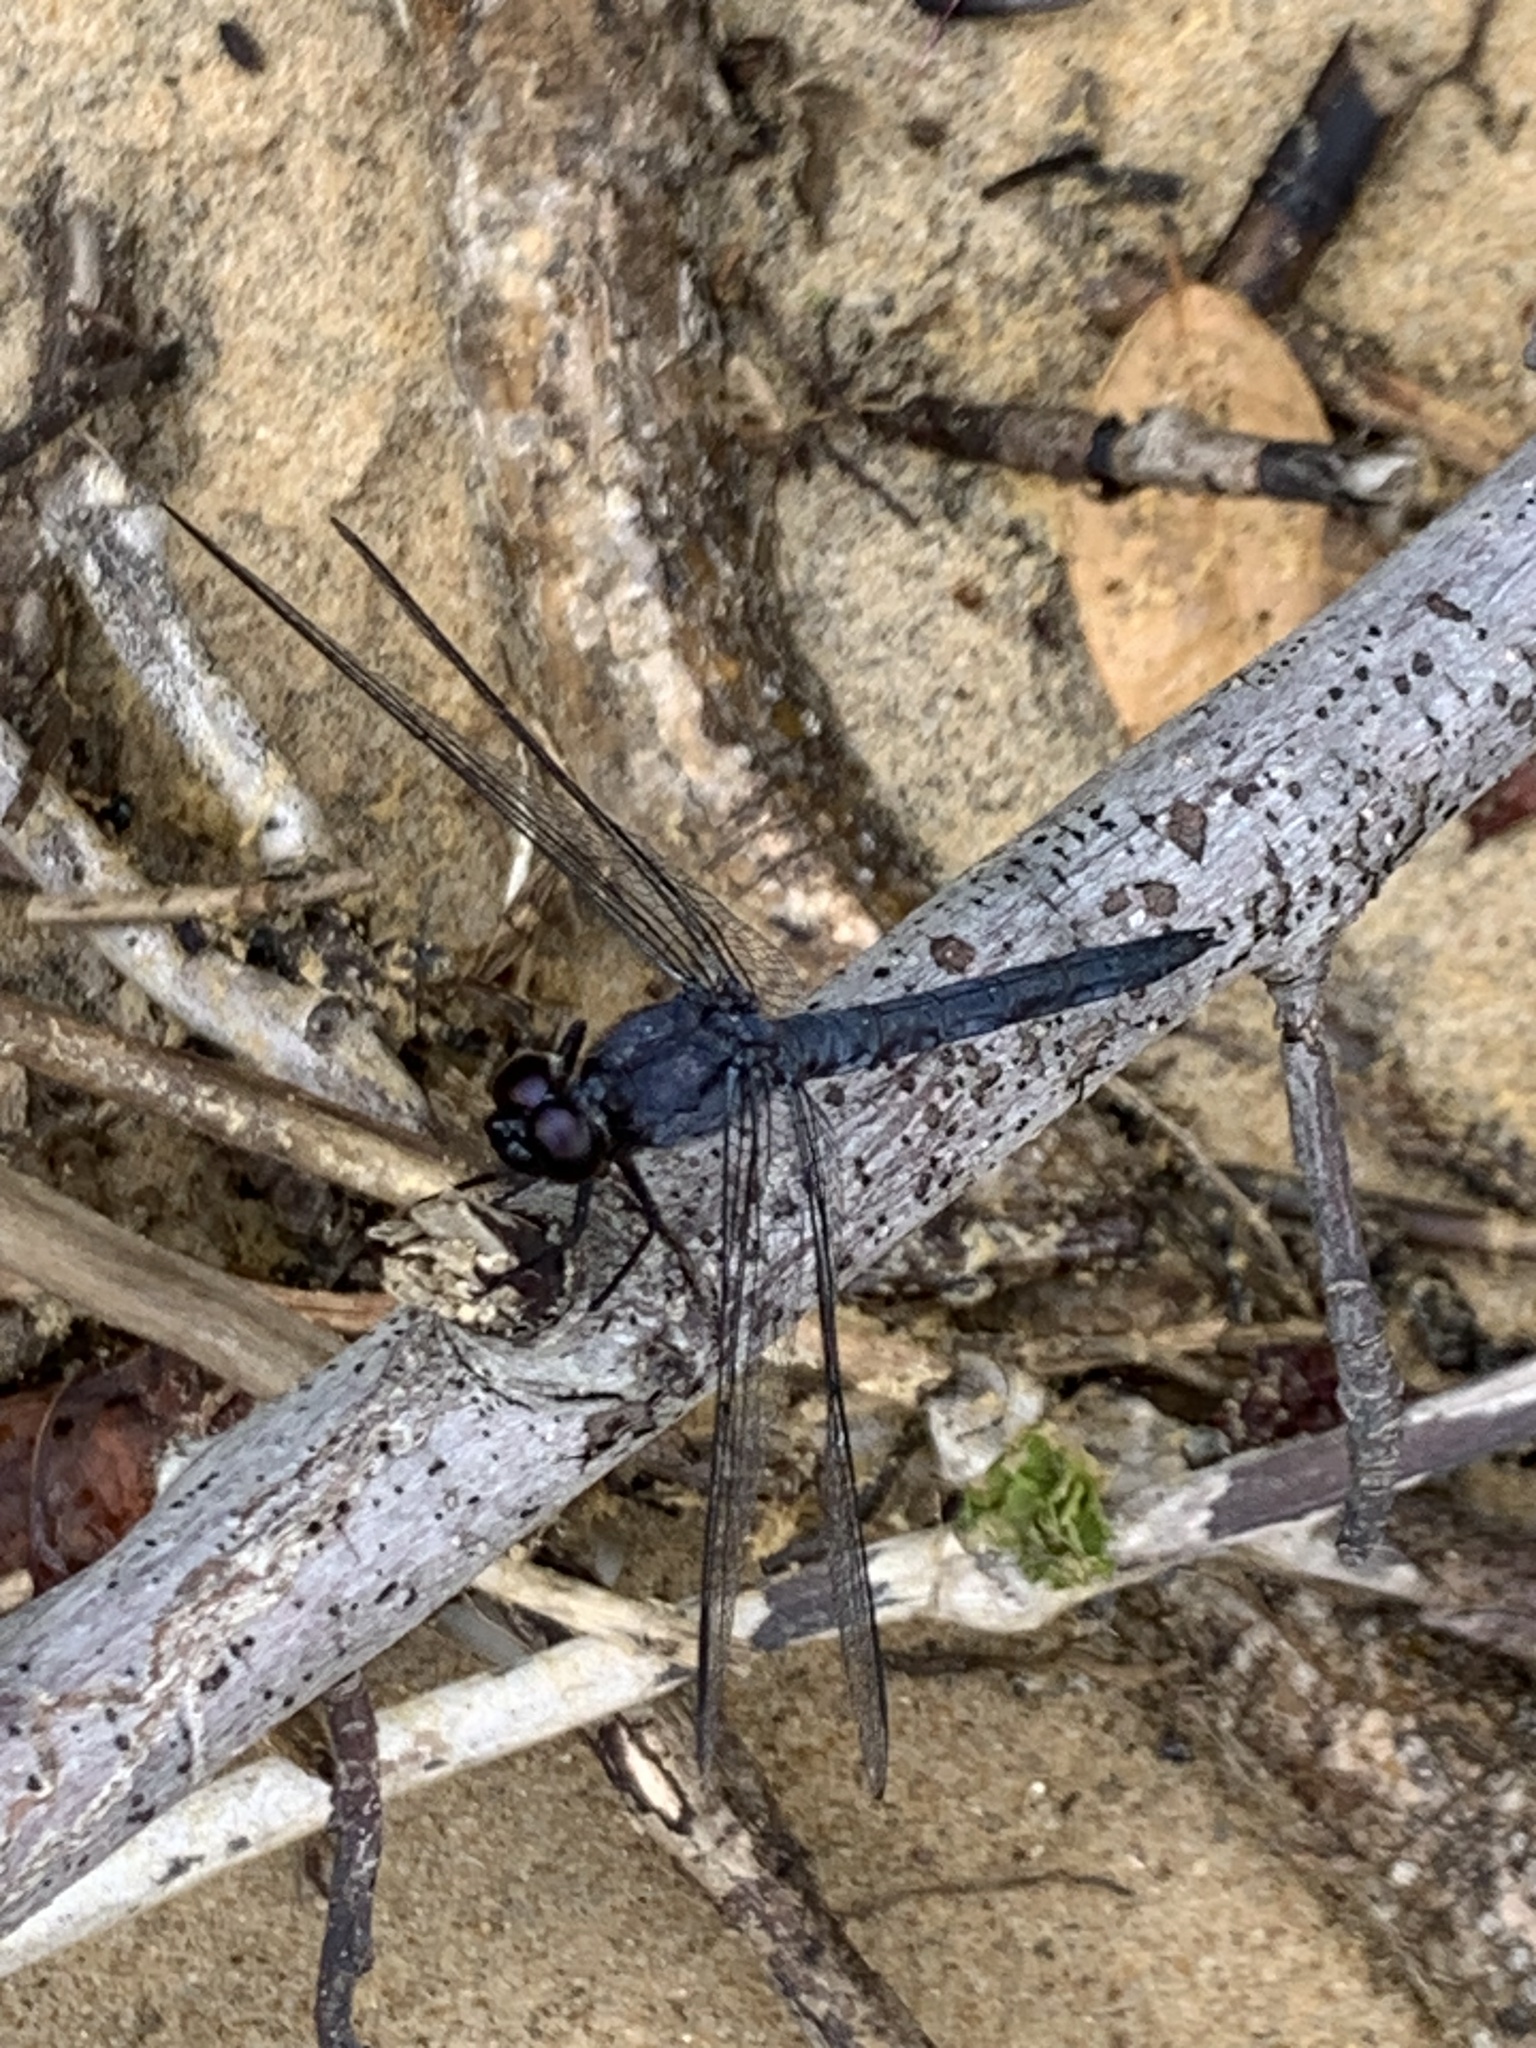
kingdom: Animalia
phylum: Arthropoda
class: Insecta
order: Odonata
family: Libellulidae
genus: Erythrodiplax
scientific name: Erythrodiplax berenice
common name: Seaside dragonlet
